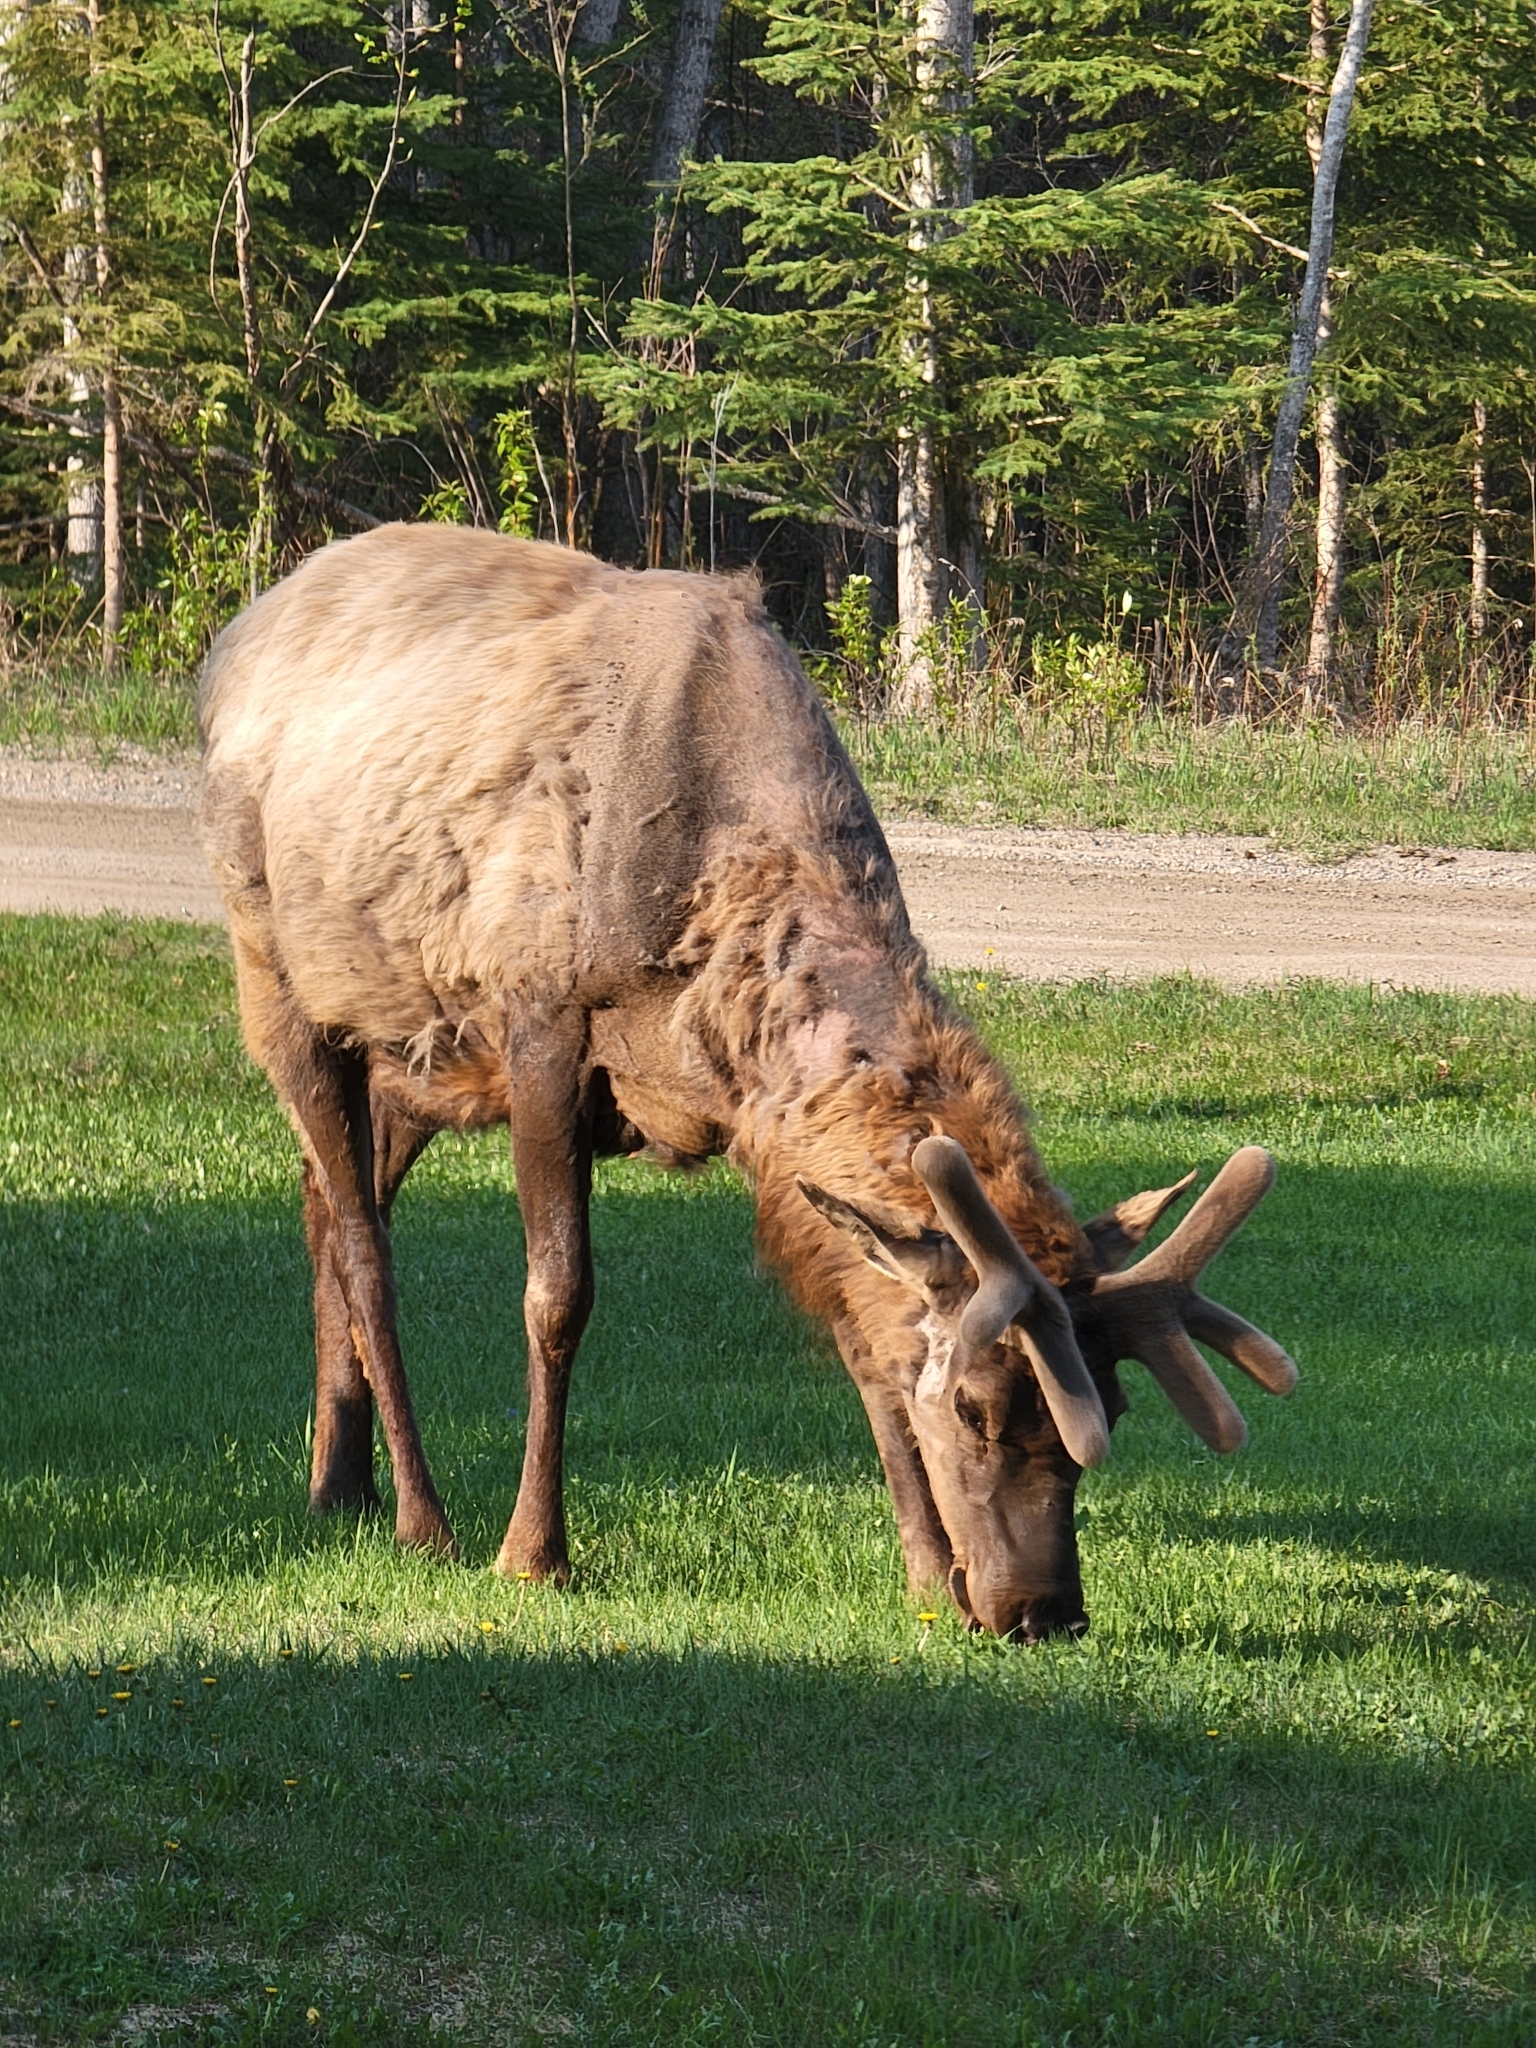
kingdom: Animalia
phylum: Chordata
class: Mammalia
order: Artiodactyla
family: Cervidae
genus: Cervus
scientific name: Cervus elaphus
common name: Red deer
